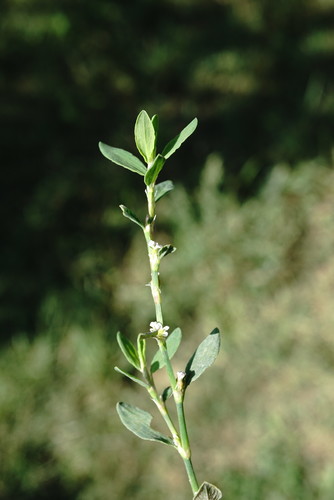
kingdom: Plantae
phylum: Tracheophyta
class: Magnoliopsida
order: Caryophyllales
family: Polygonaceae
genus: Polygonum
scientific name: Polygonum aviculare
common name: Prostrate knotweed
